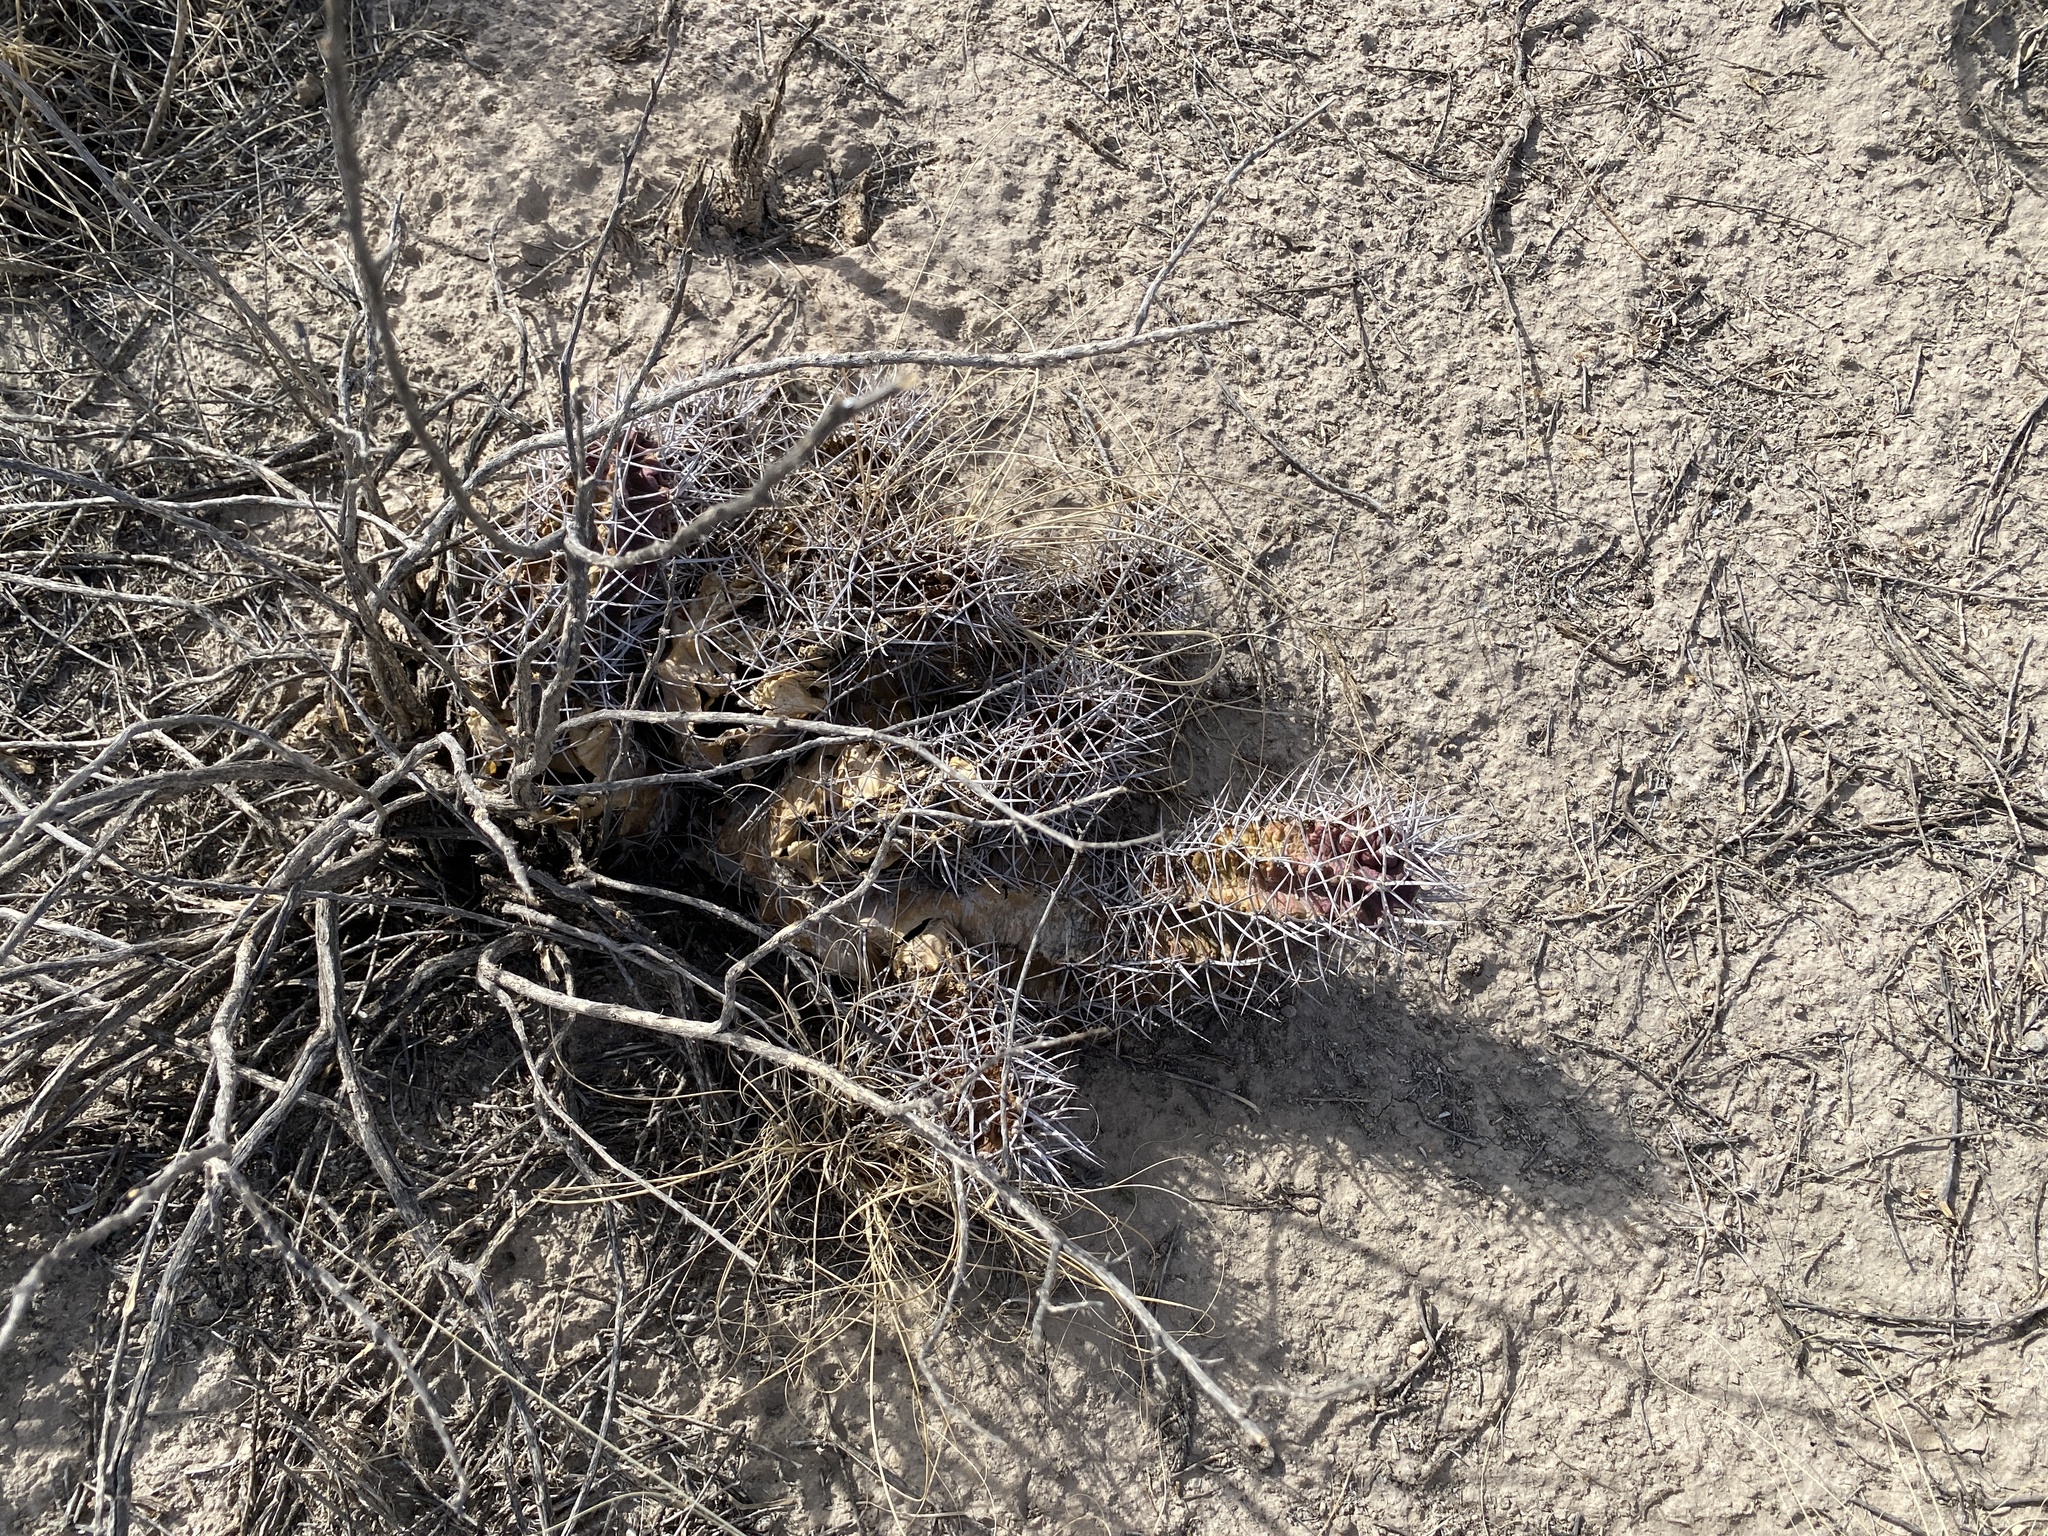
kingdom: Plantae
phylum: Tracheophyta
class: Magnoliopsida
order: Caryophyllales
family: Cactaceae
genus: Echinocereus
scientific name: Echinocereus triglochidiatus
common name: Claretcup hedgehog
